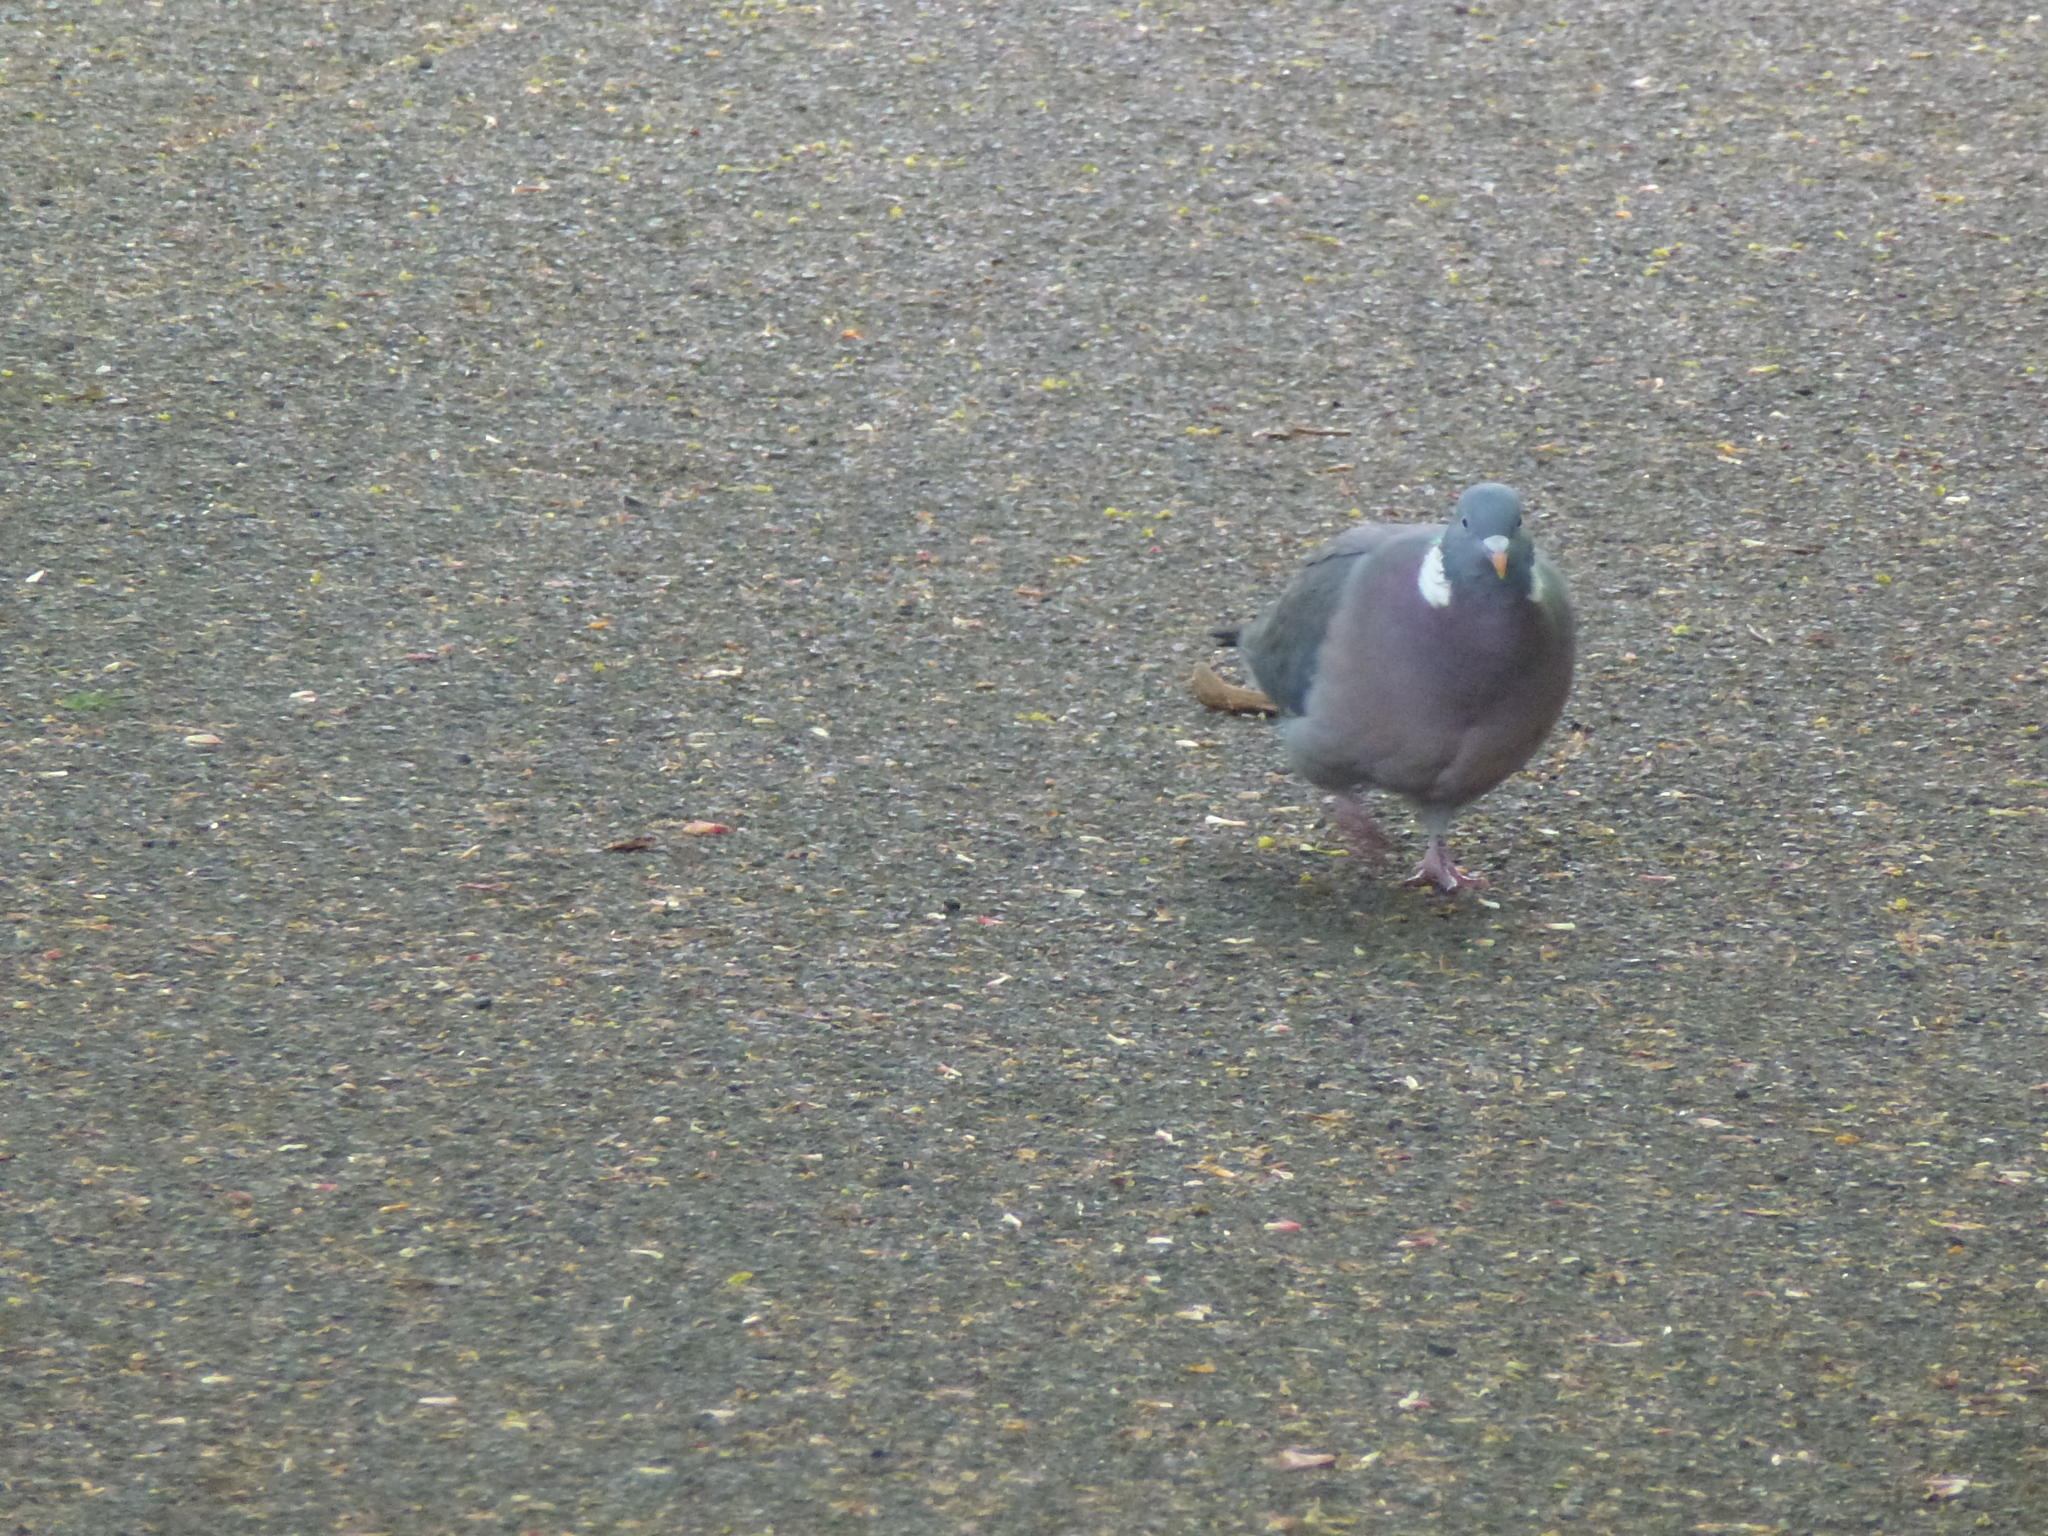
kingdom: Animalia
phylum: Chordata
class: Aves
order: Columbiformes
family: Columbidae
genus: Columba
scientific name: Columba palumbus
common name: Common wood pigeon
